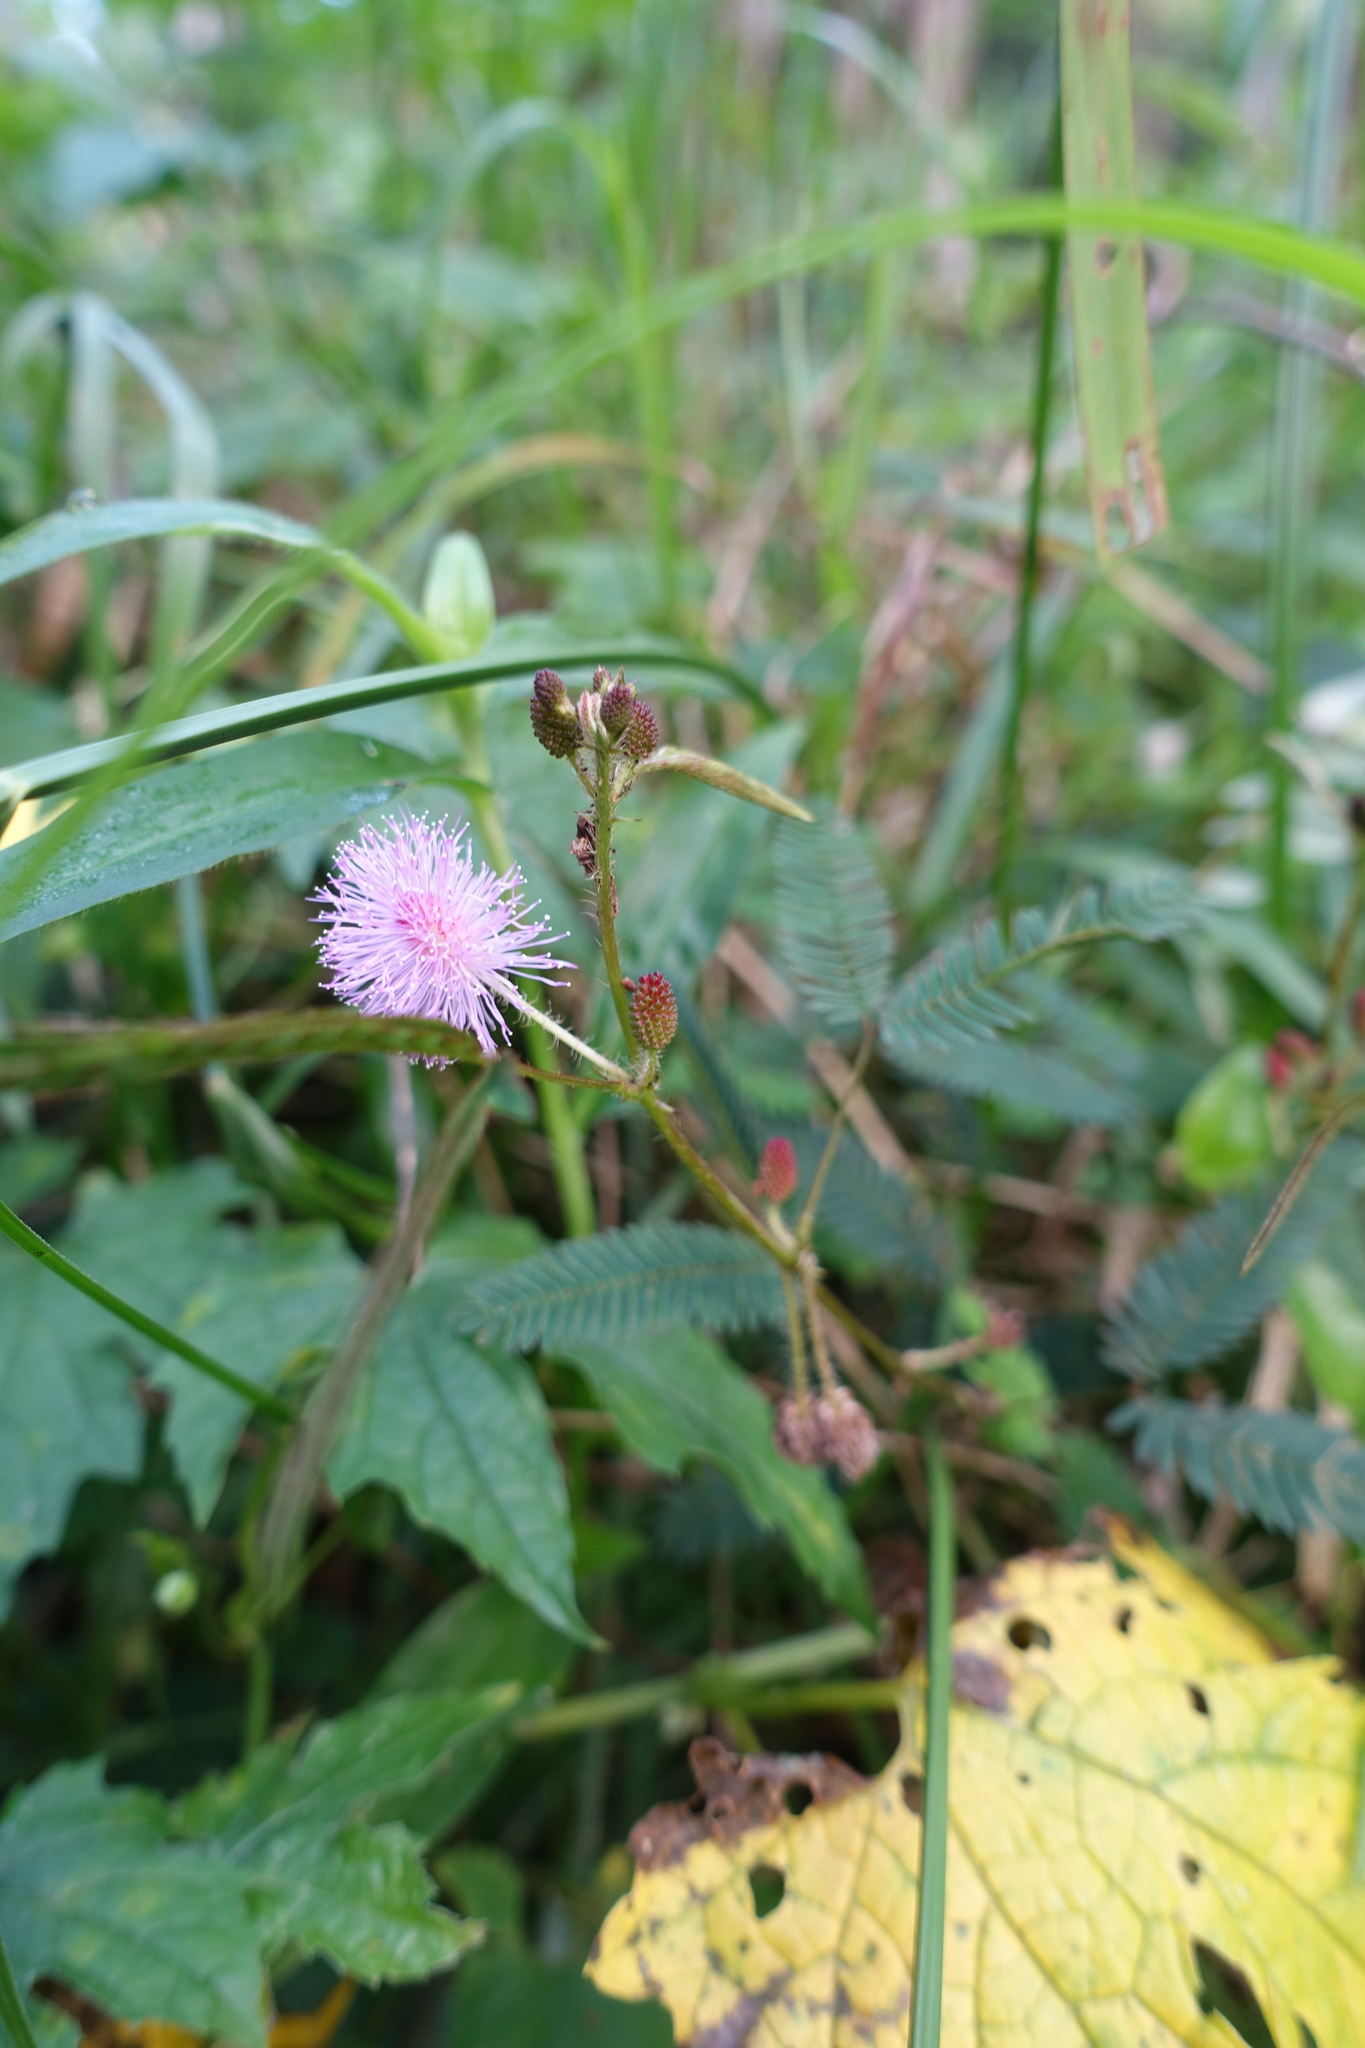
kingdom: Plantae
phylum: Tracheophyta
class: Magnoliopsida
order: Fabales
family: Fabaceae
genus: Mimosa
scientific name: Mimosa pudica
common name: Sensitive plant
